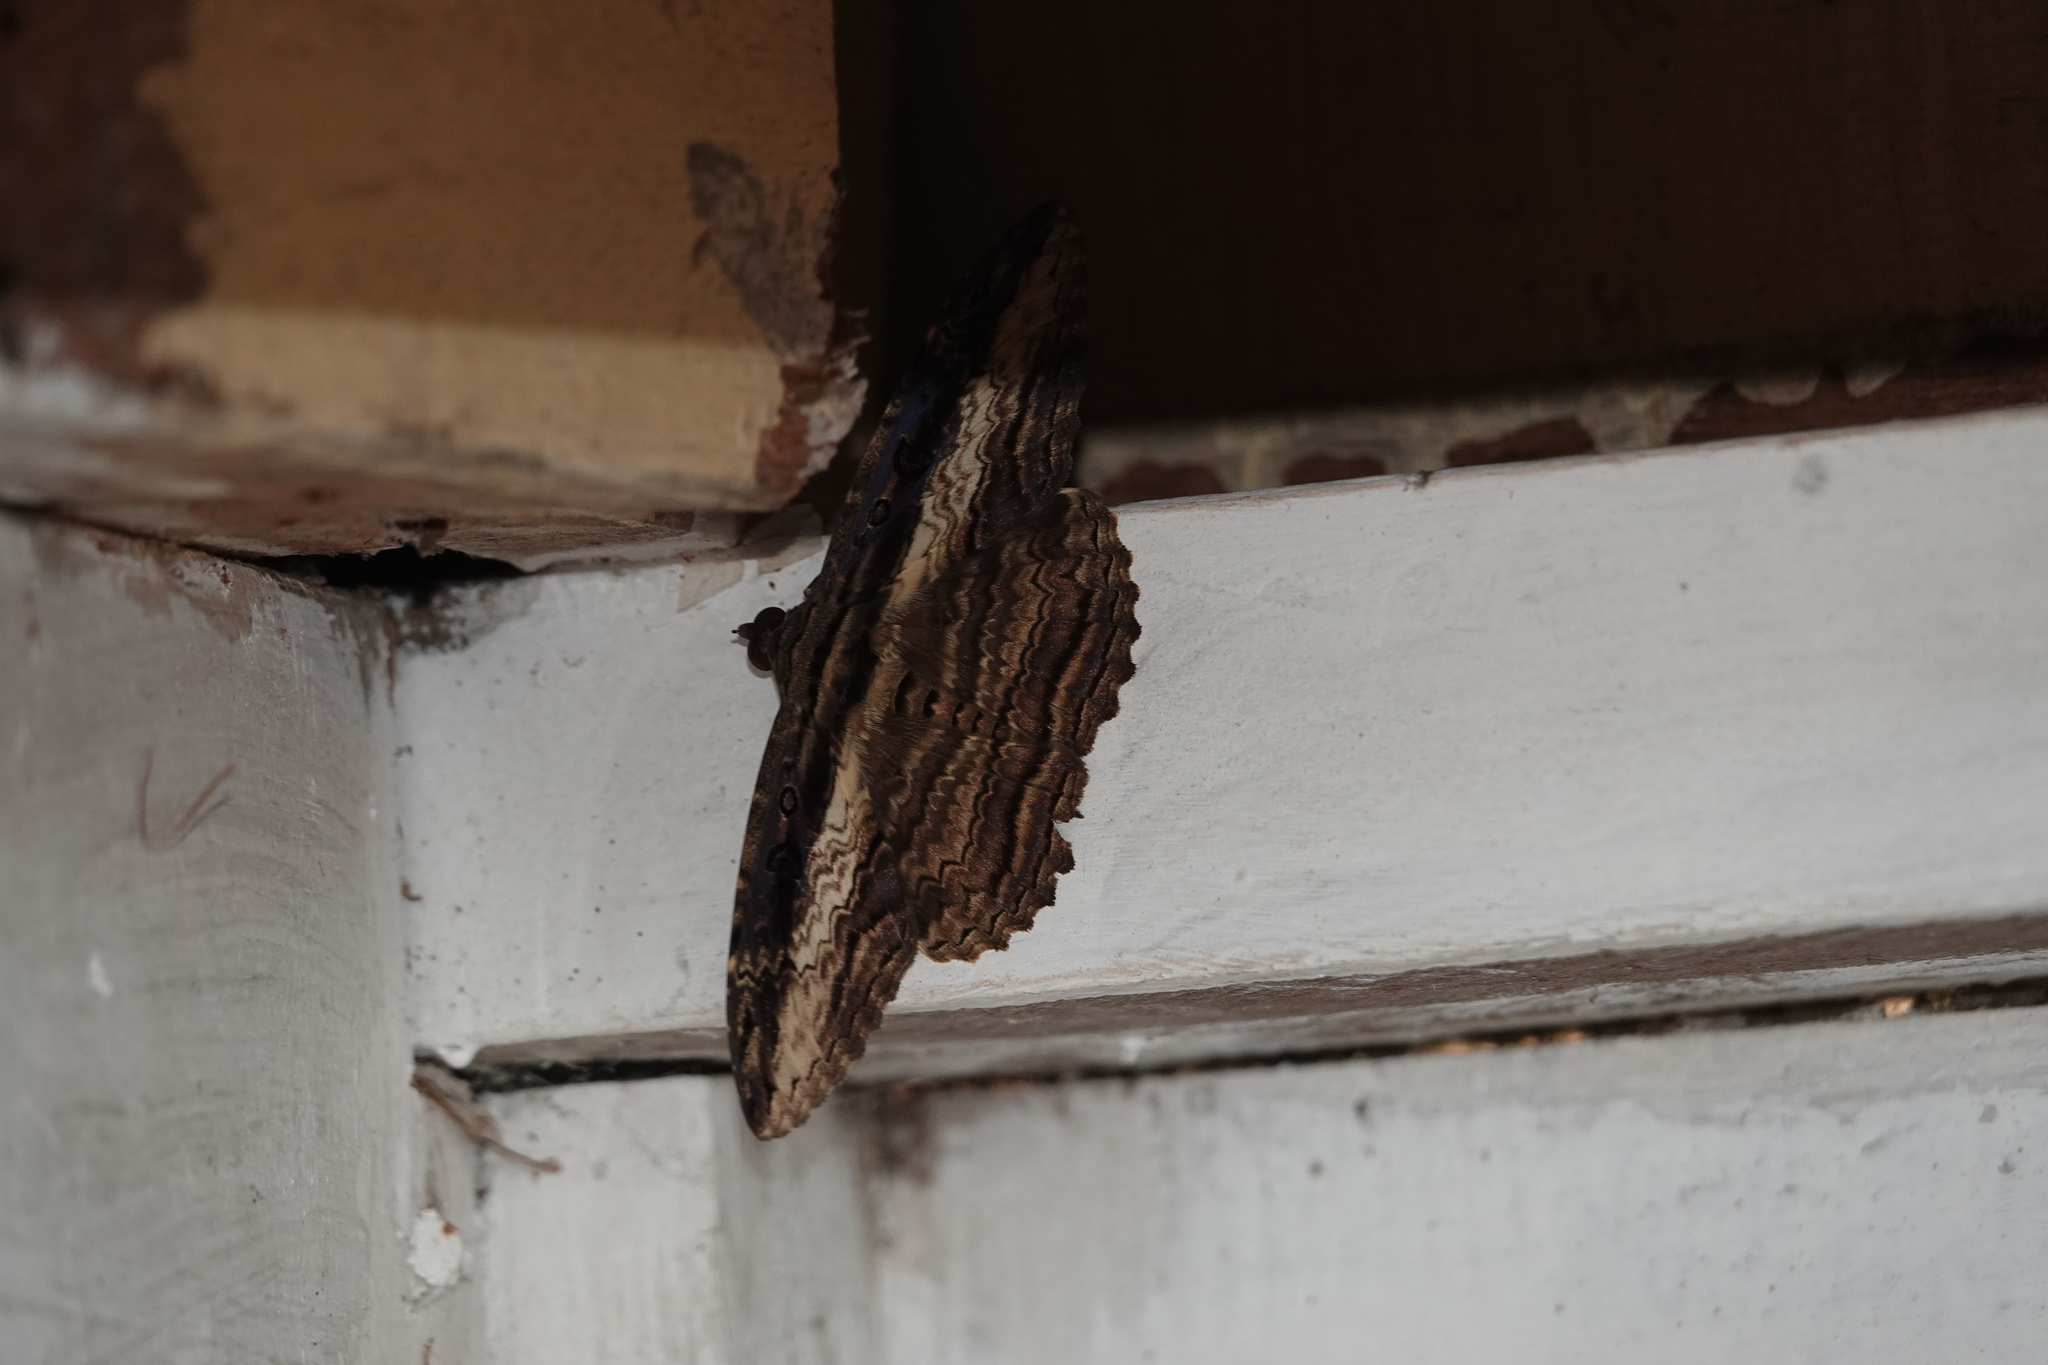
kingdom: Animalia
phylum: Arthropoda
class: Insecta
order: Lepidoptera
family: Erebidae
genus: Feigeria
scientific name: Feigeria buteo
